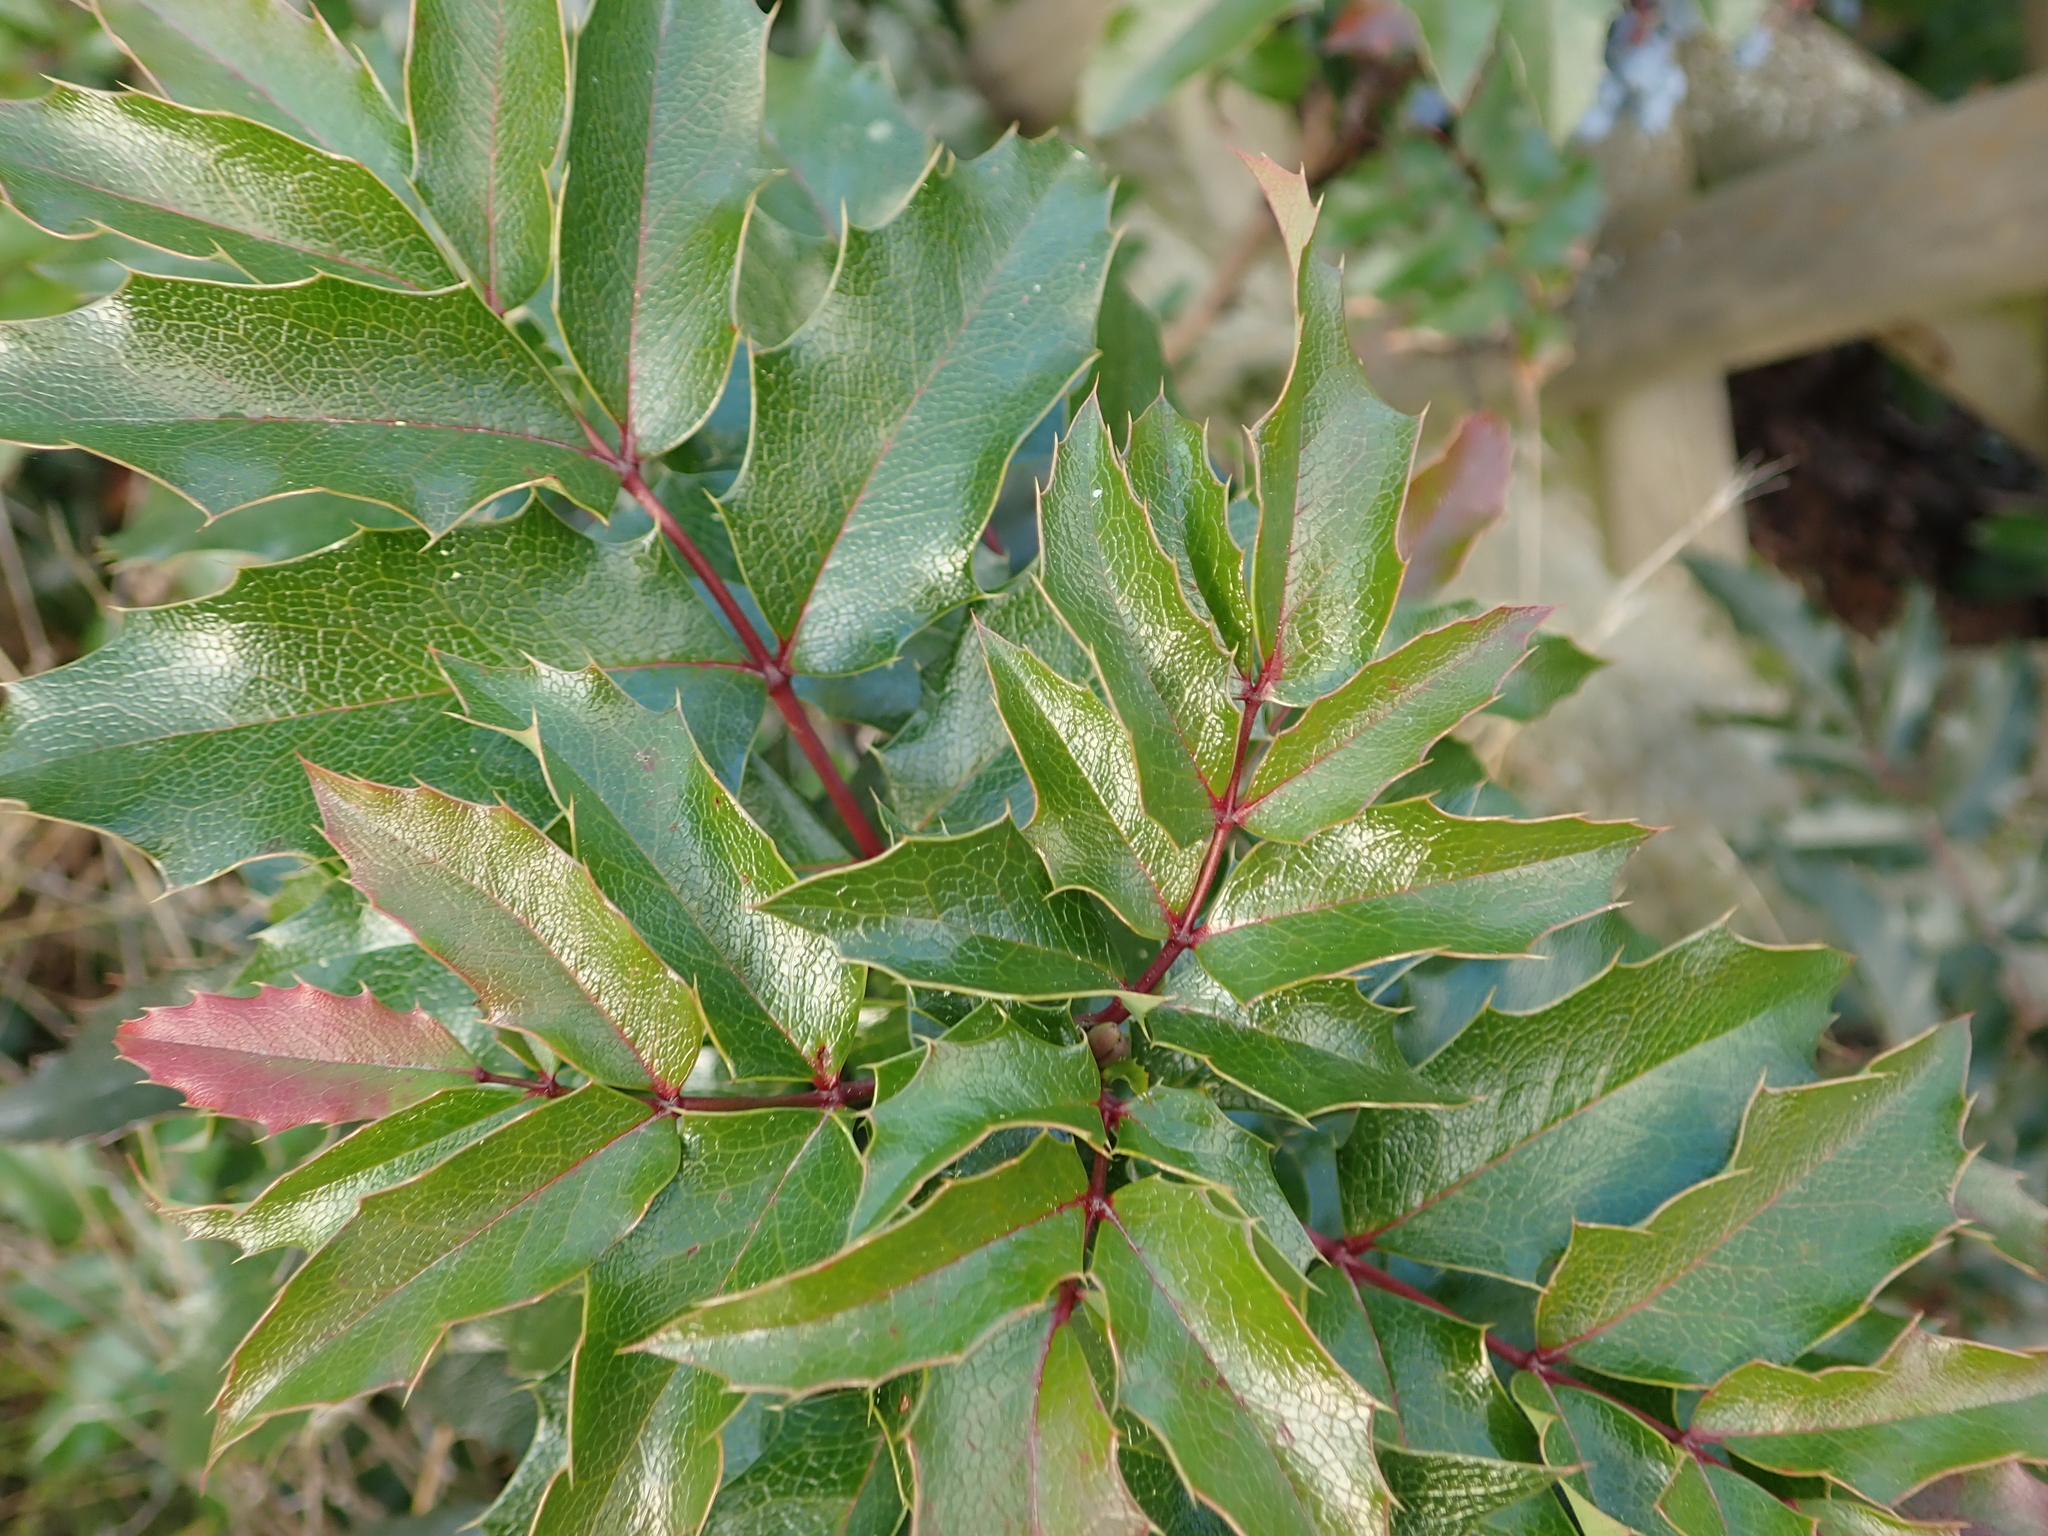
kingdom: Plantae
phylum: Tracheophyta
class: Magnoliopsida
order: Ranunculales
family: Berberidaceae
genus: Mahonia
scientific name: Mahonia aquifolium
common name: Oregon-grape
